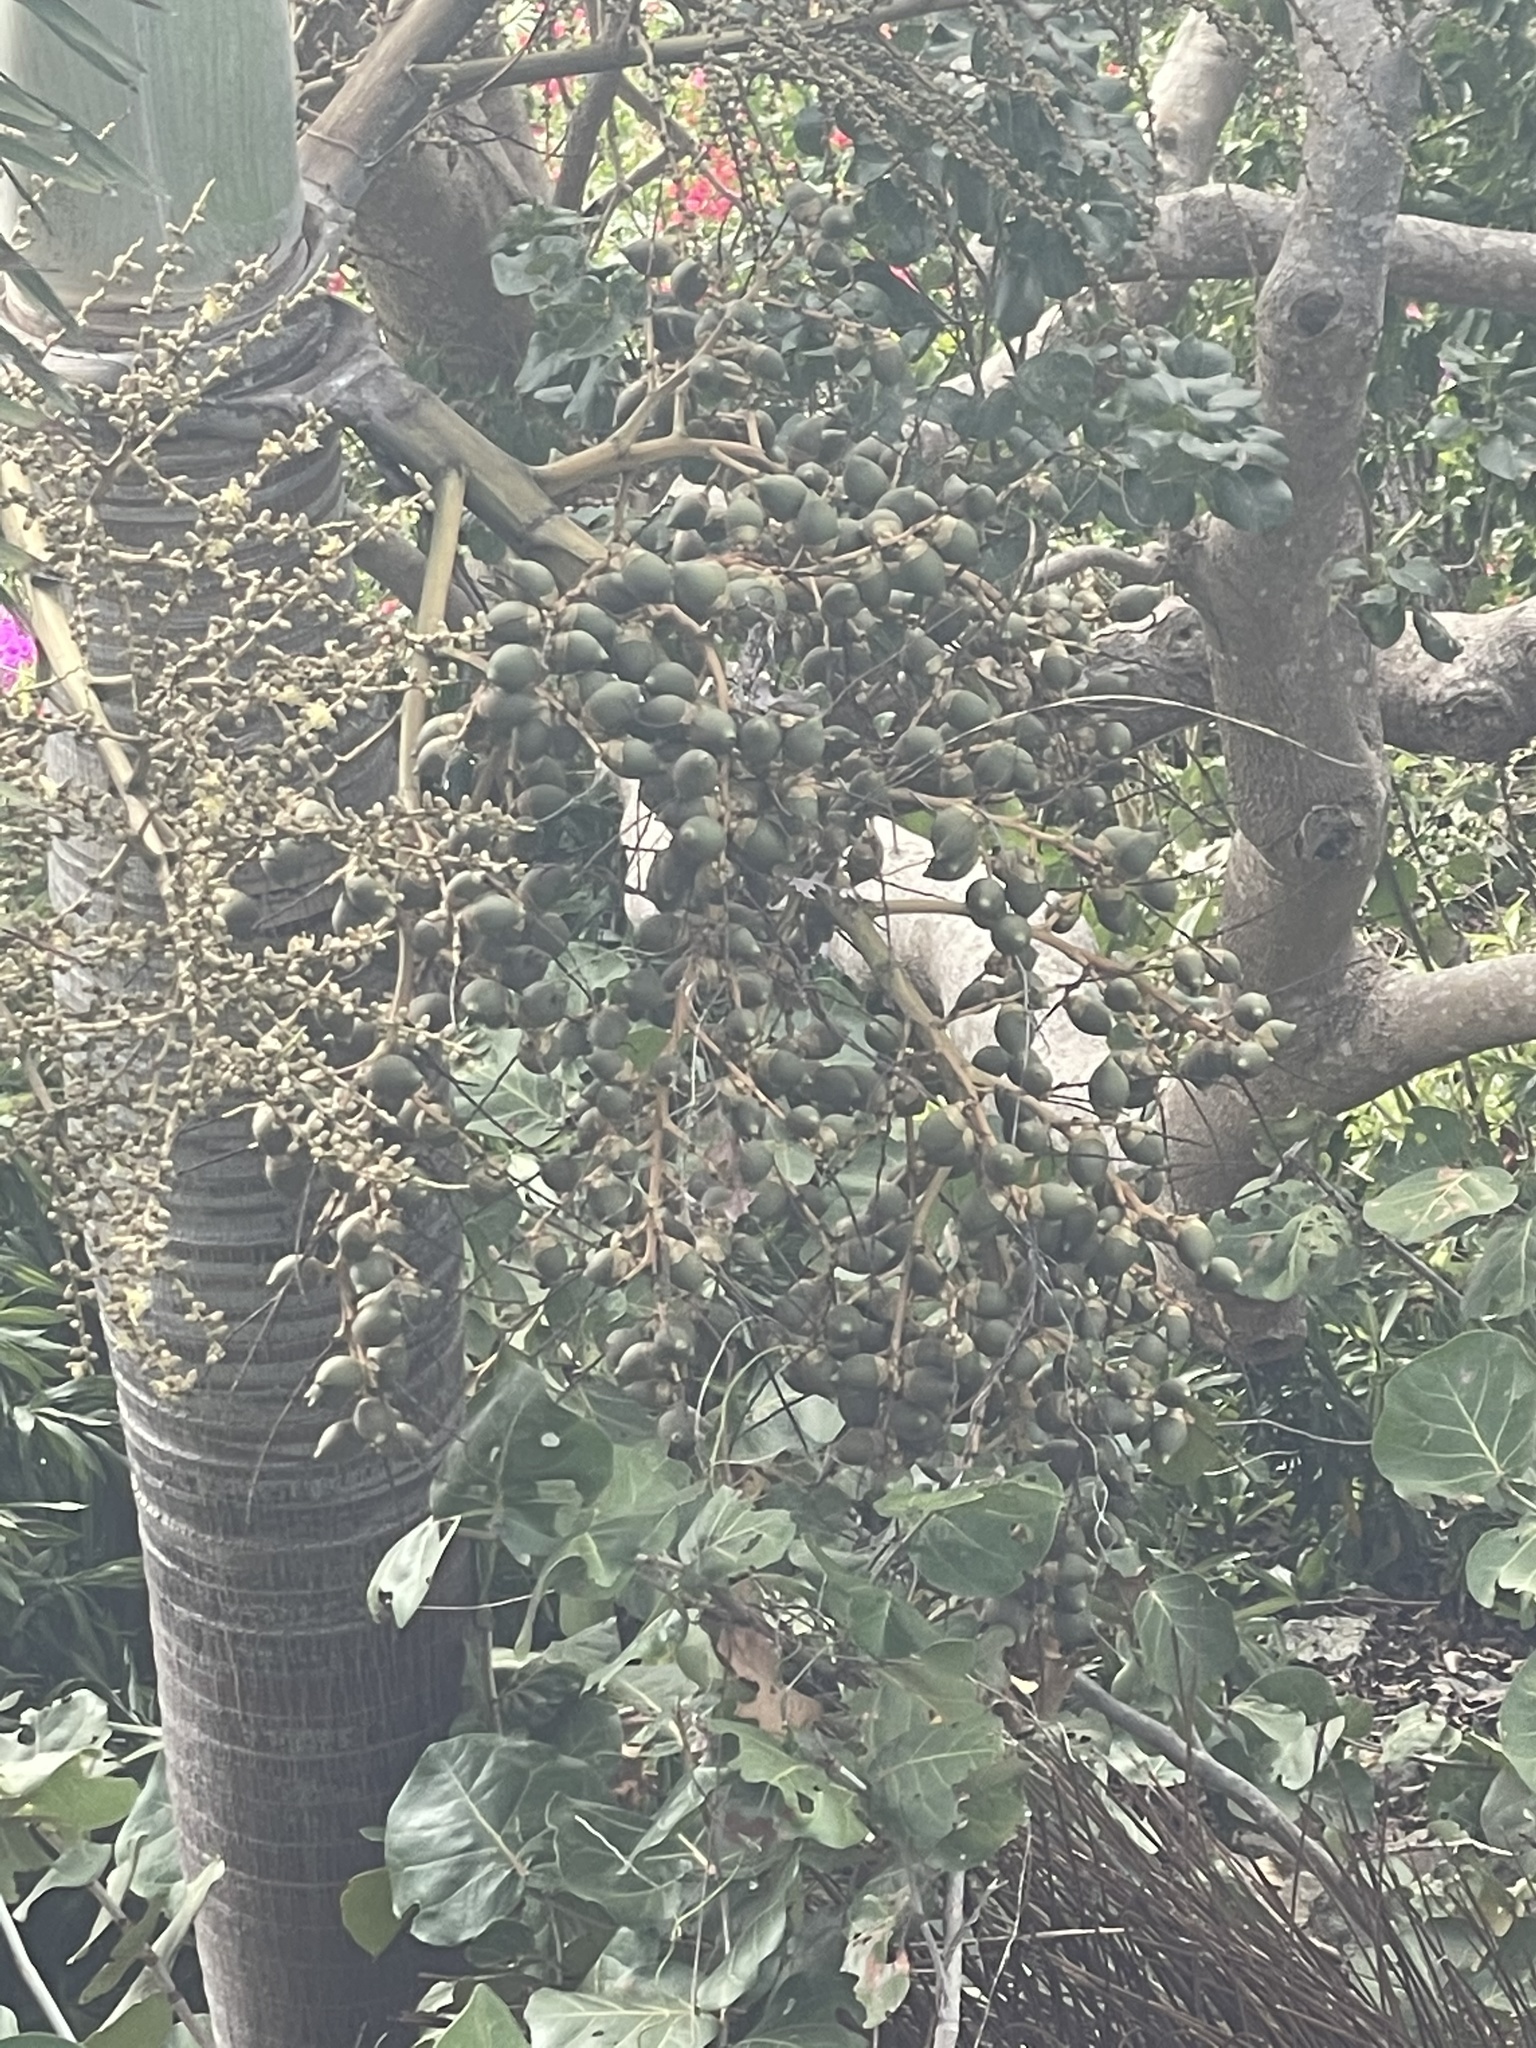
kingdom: Plantae
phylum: Tracheophyta
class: Liliopsida
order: Arecales
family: Arecaceae
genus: Wodyetia
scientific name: Wodyetia bifurcata
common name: Foxtail palm
